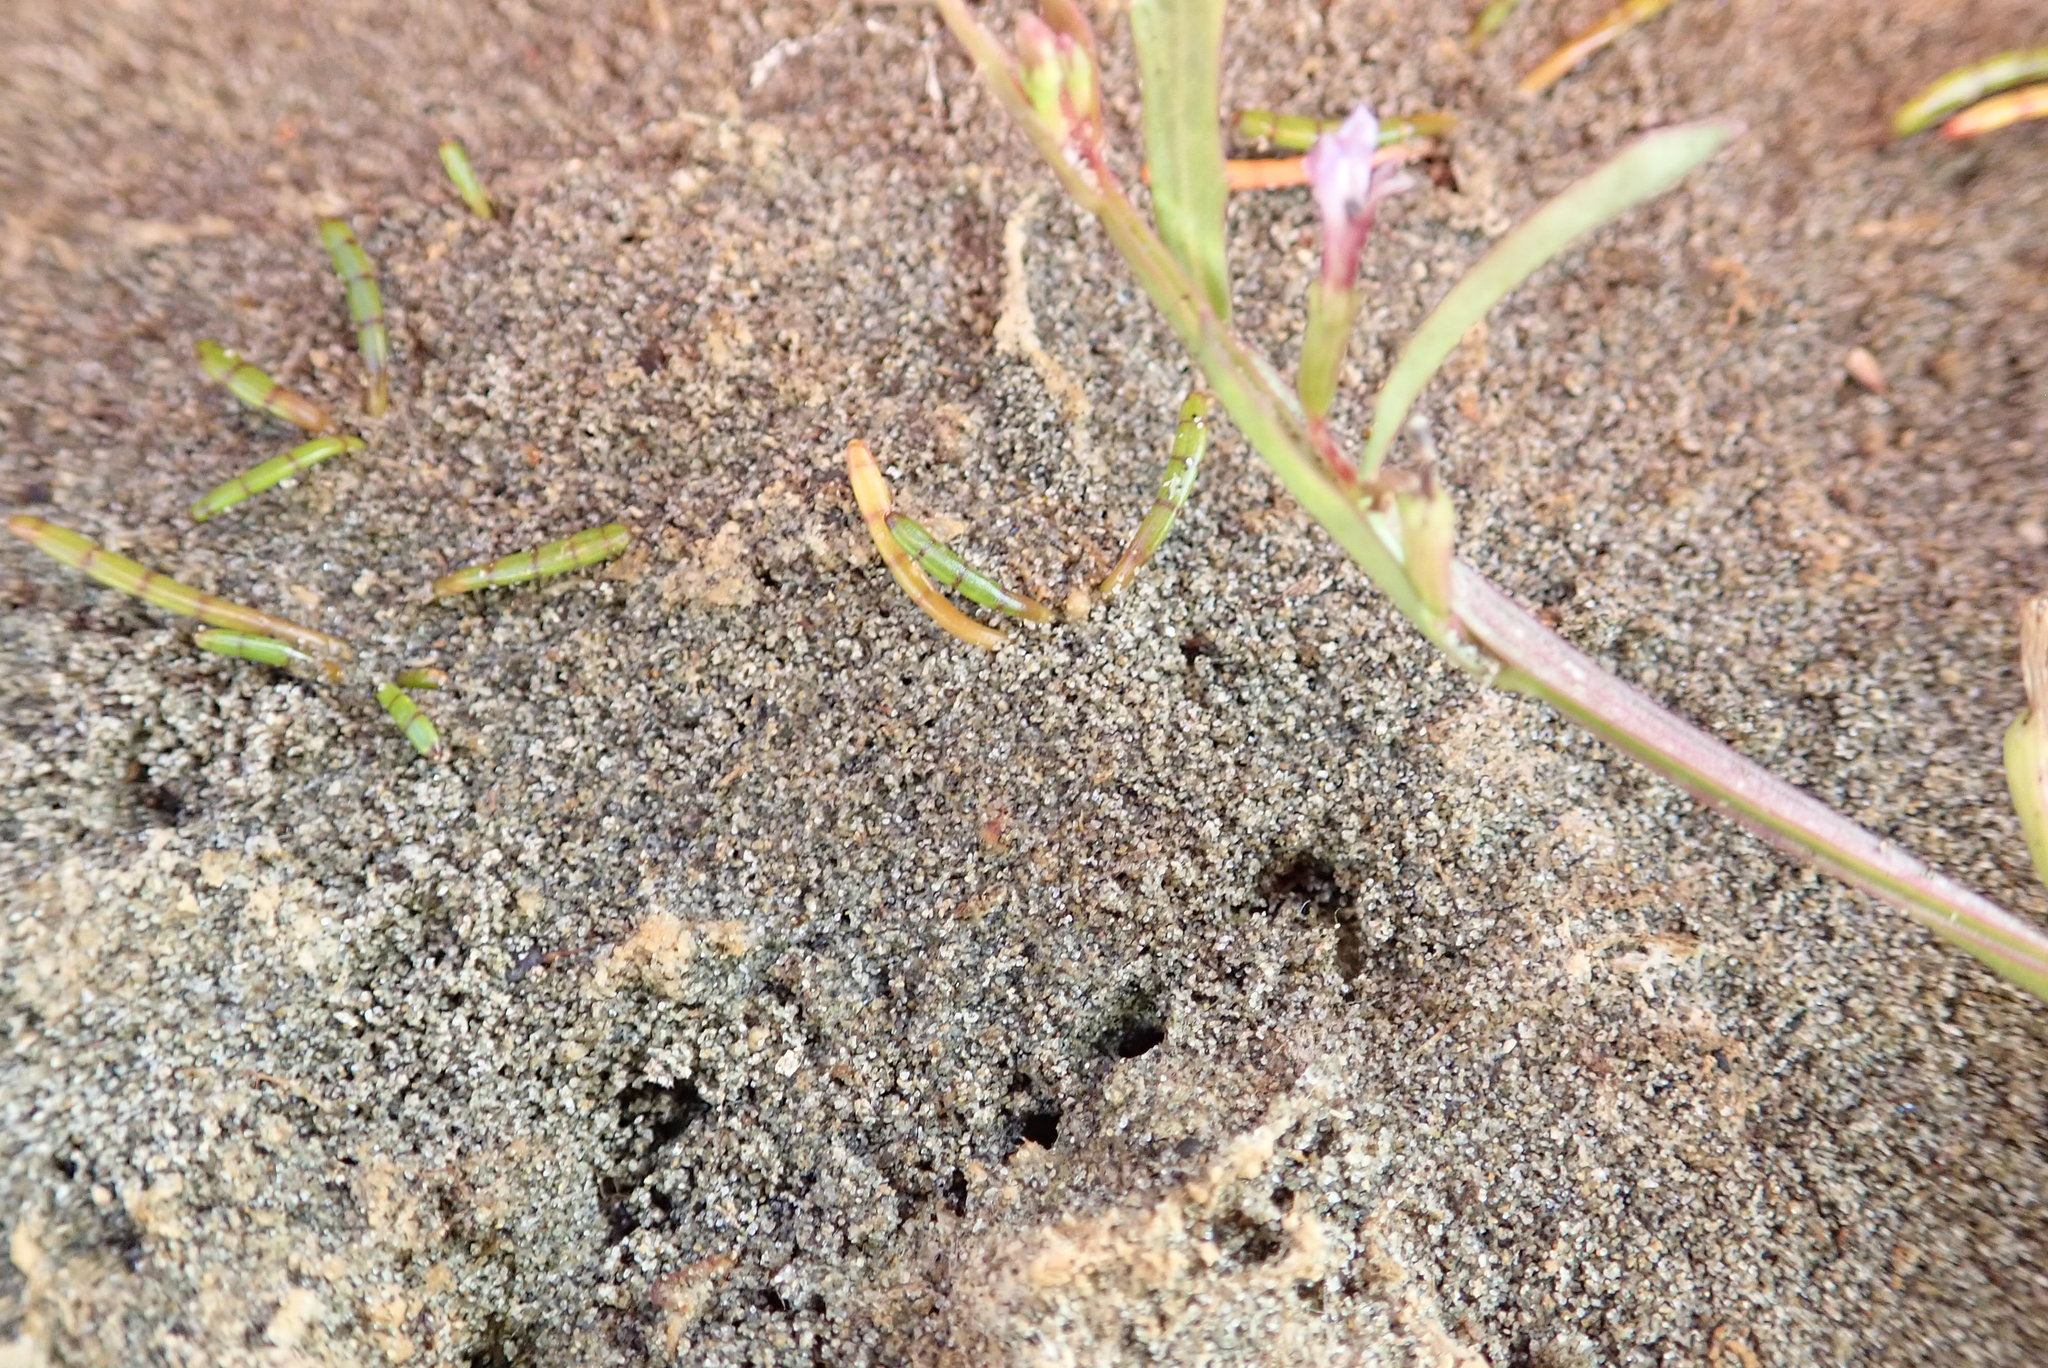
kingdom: Plantae
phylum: Tracheophyta
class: Magnoliopsida
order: Apiales
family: Apiaceae
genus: Lilaeopsis
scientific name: Lilaeopsis novae-zelandiae
